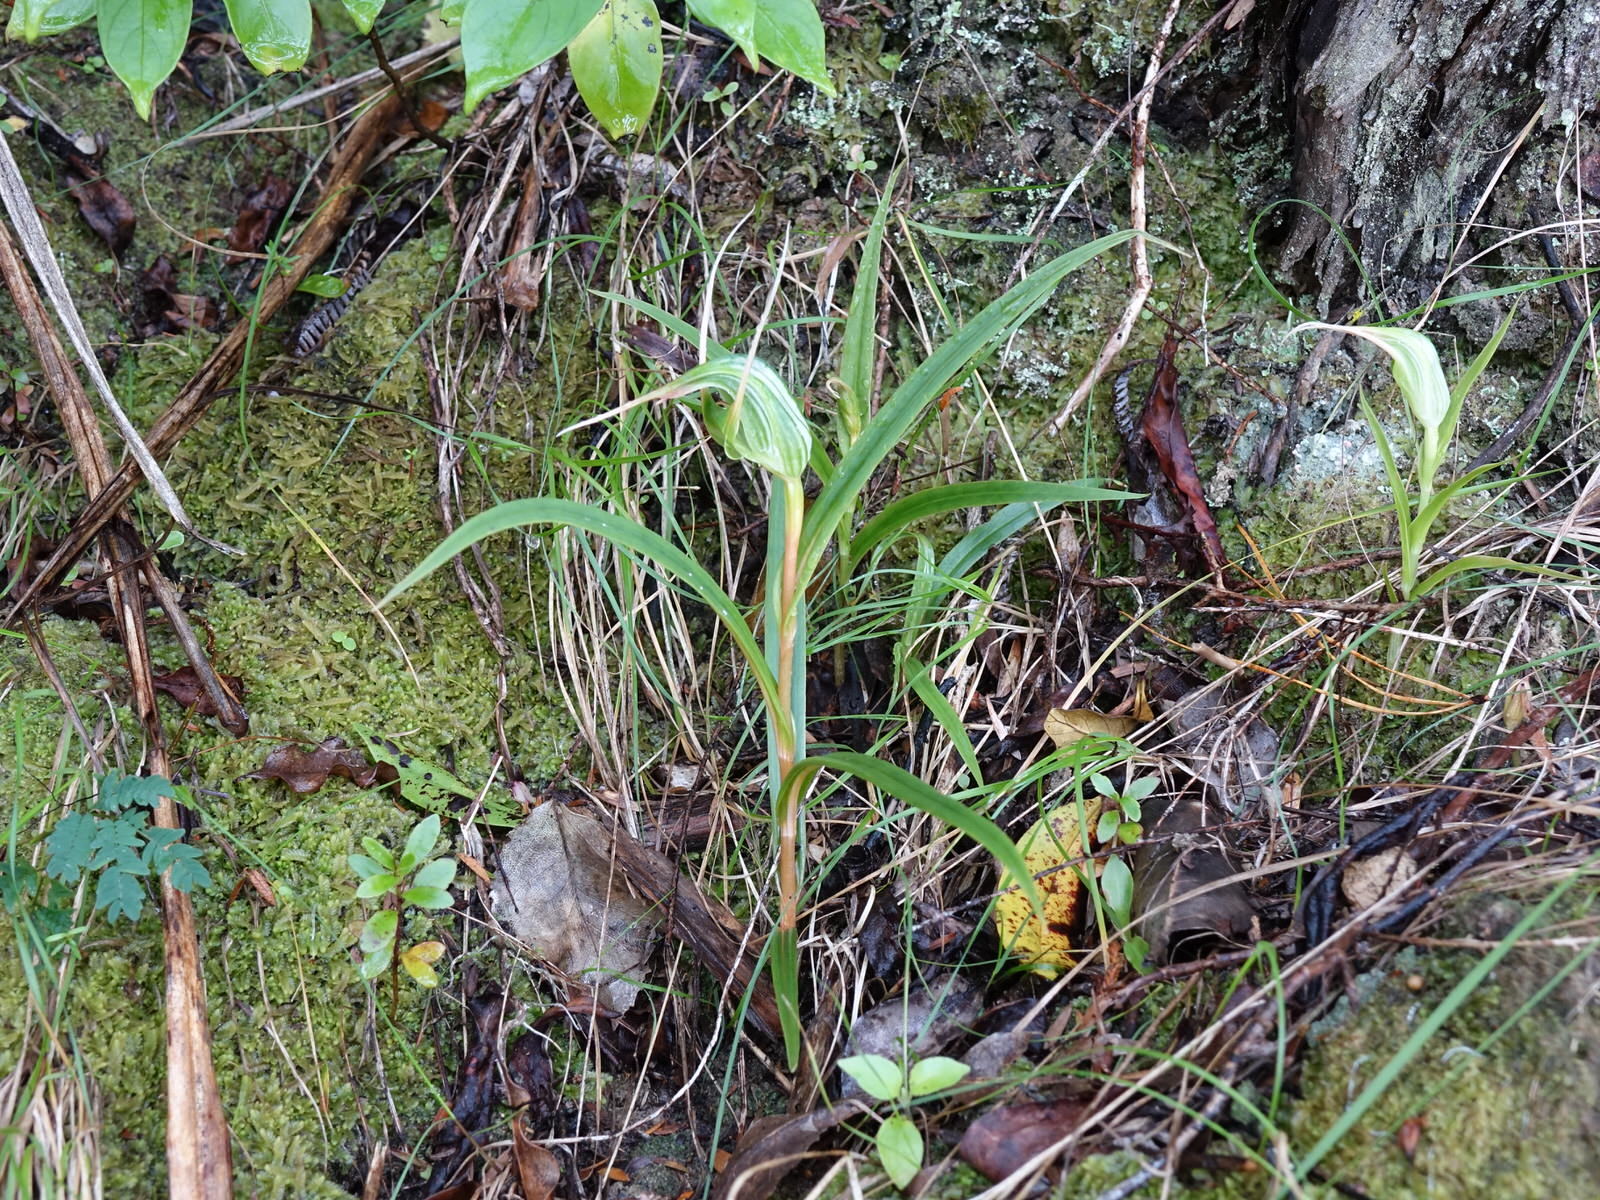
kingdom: Plantae
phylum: Tracheophyta
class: Liliopsida
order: Asparagales
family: Orchidaceae
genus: Pterostylis
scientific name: Pterostylis banksii
